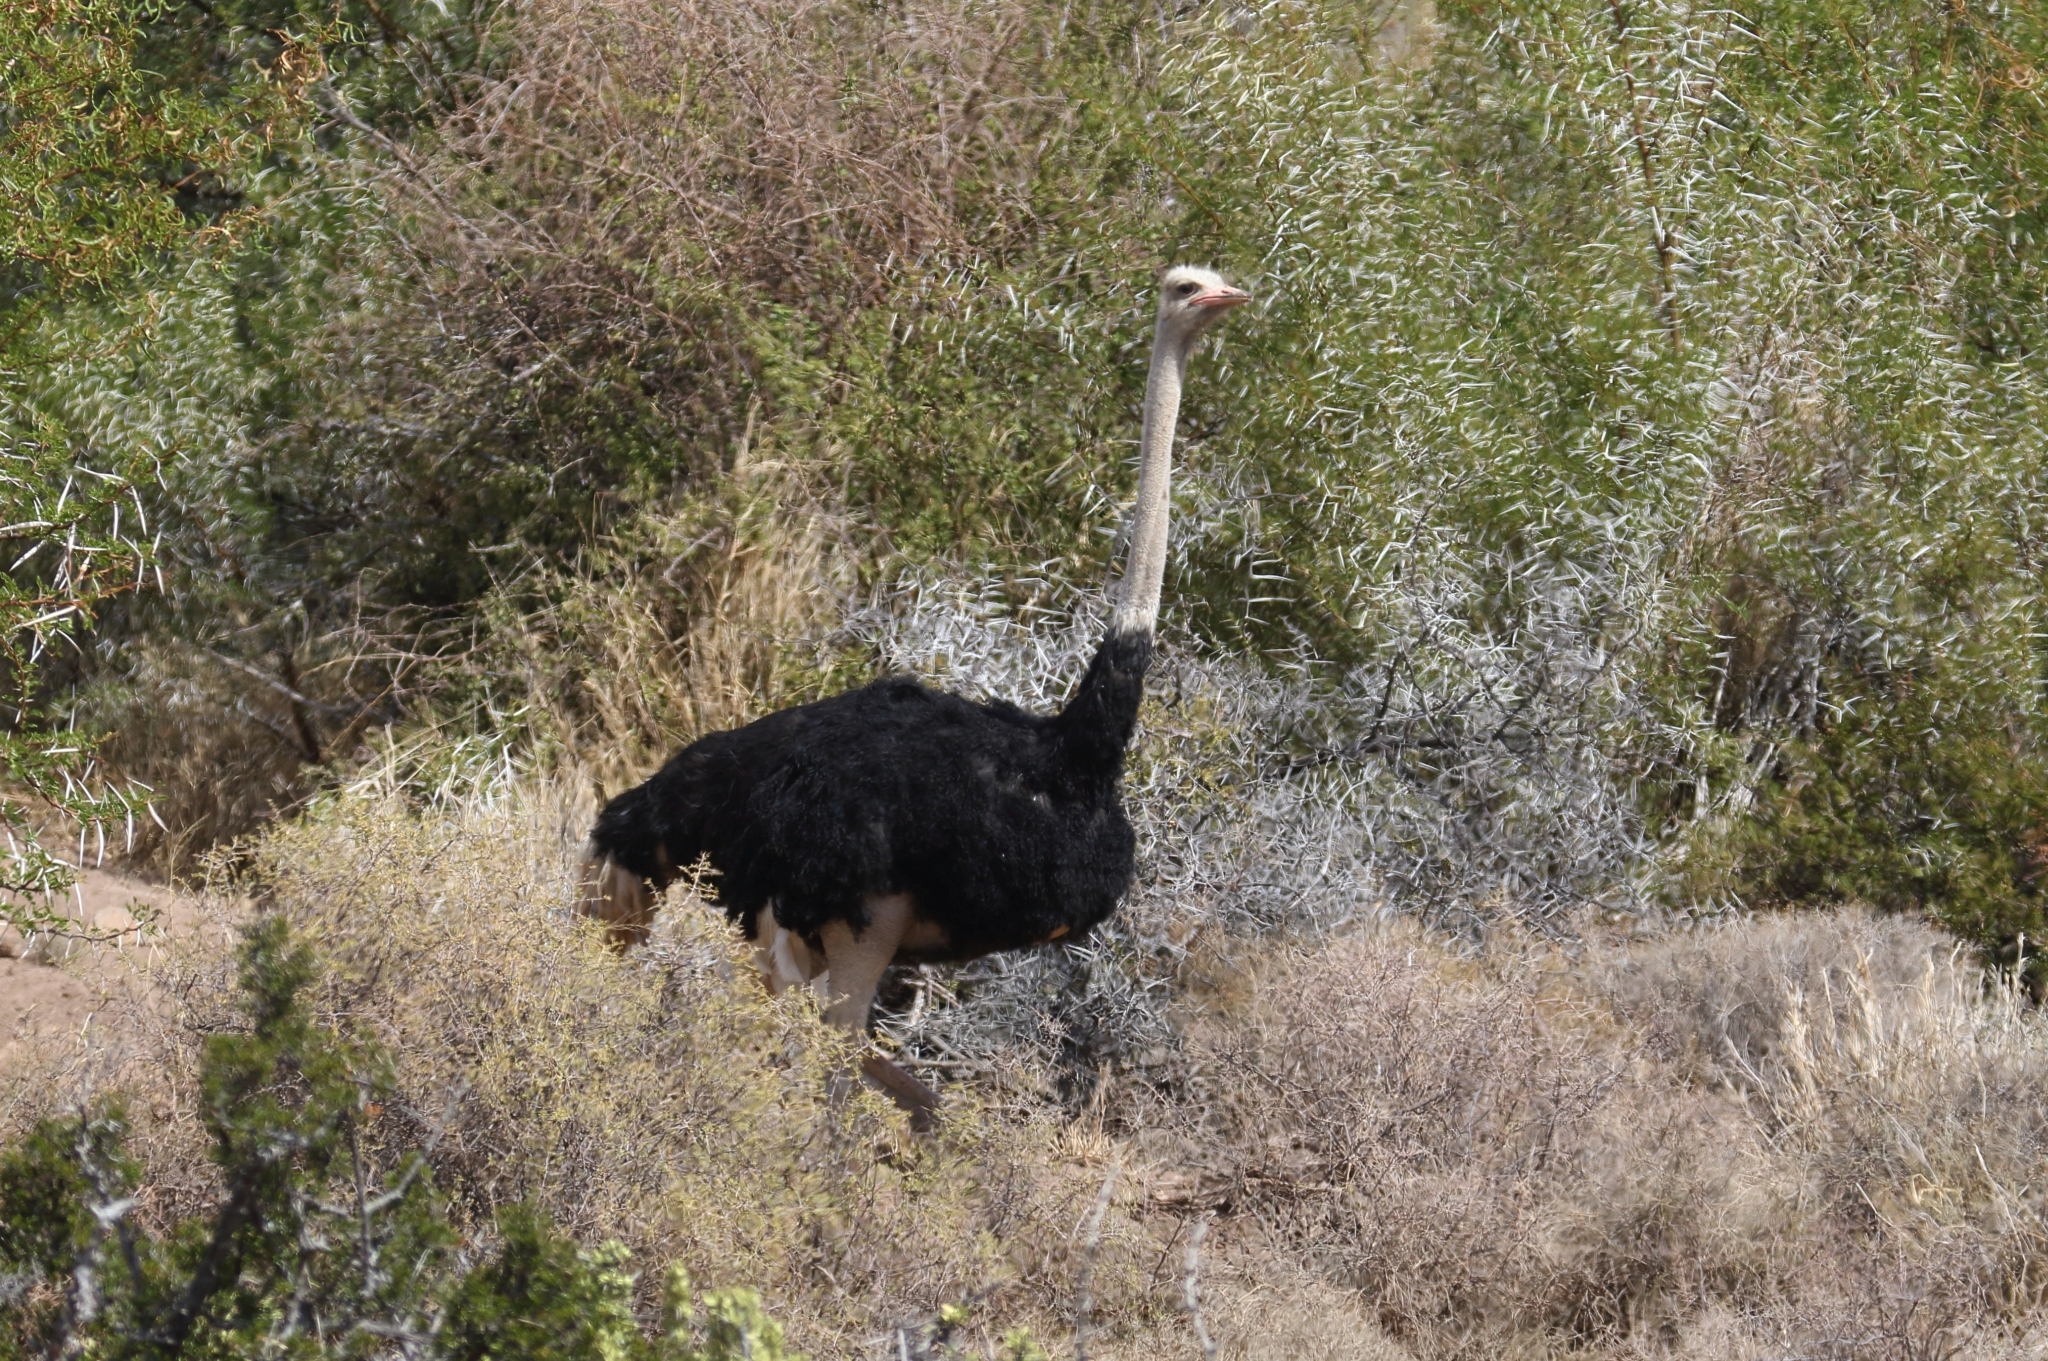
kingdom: Animalia
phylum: Chordata
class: Aves
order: Struthioniformes
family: Struthionidae
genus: Struthio
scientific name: Struthio camelus
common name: Common ostrich
